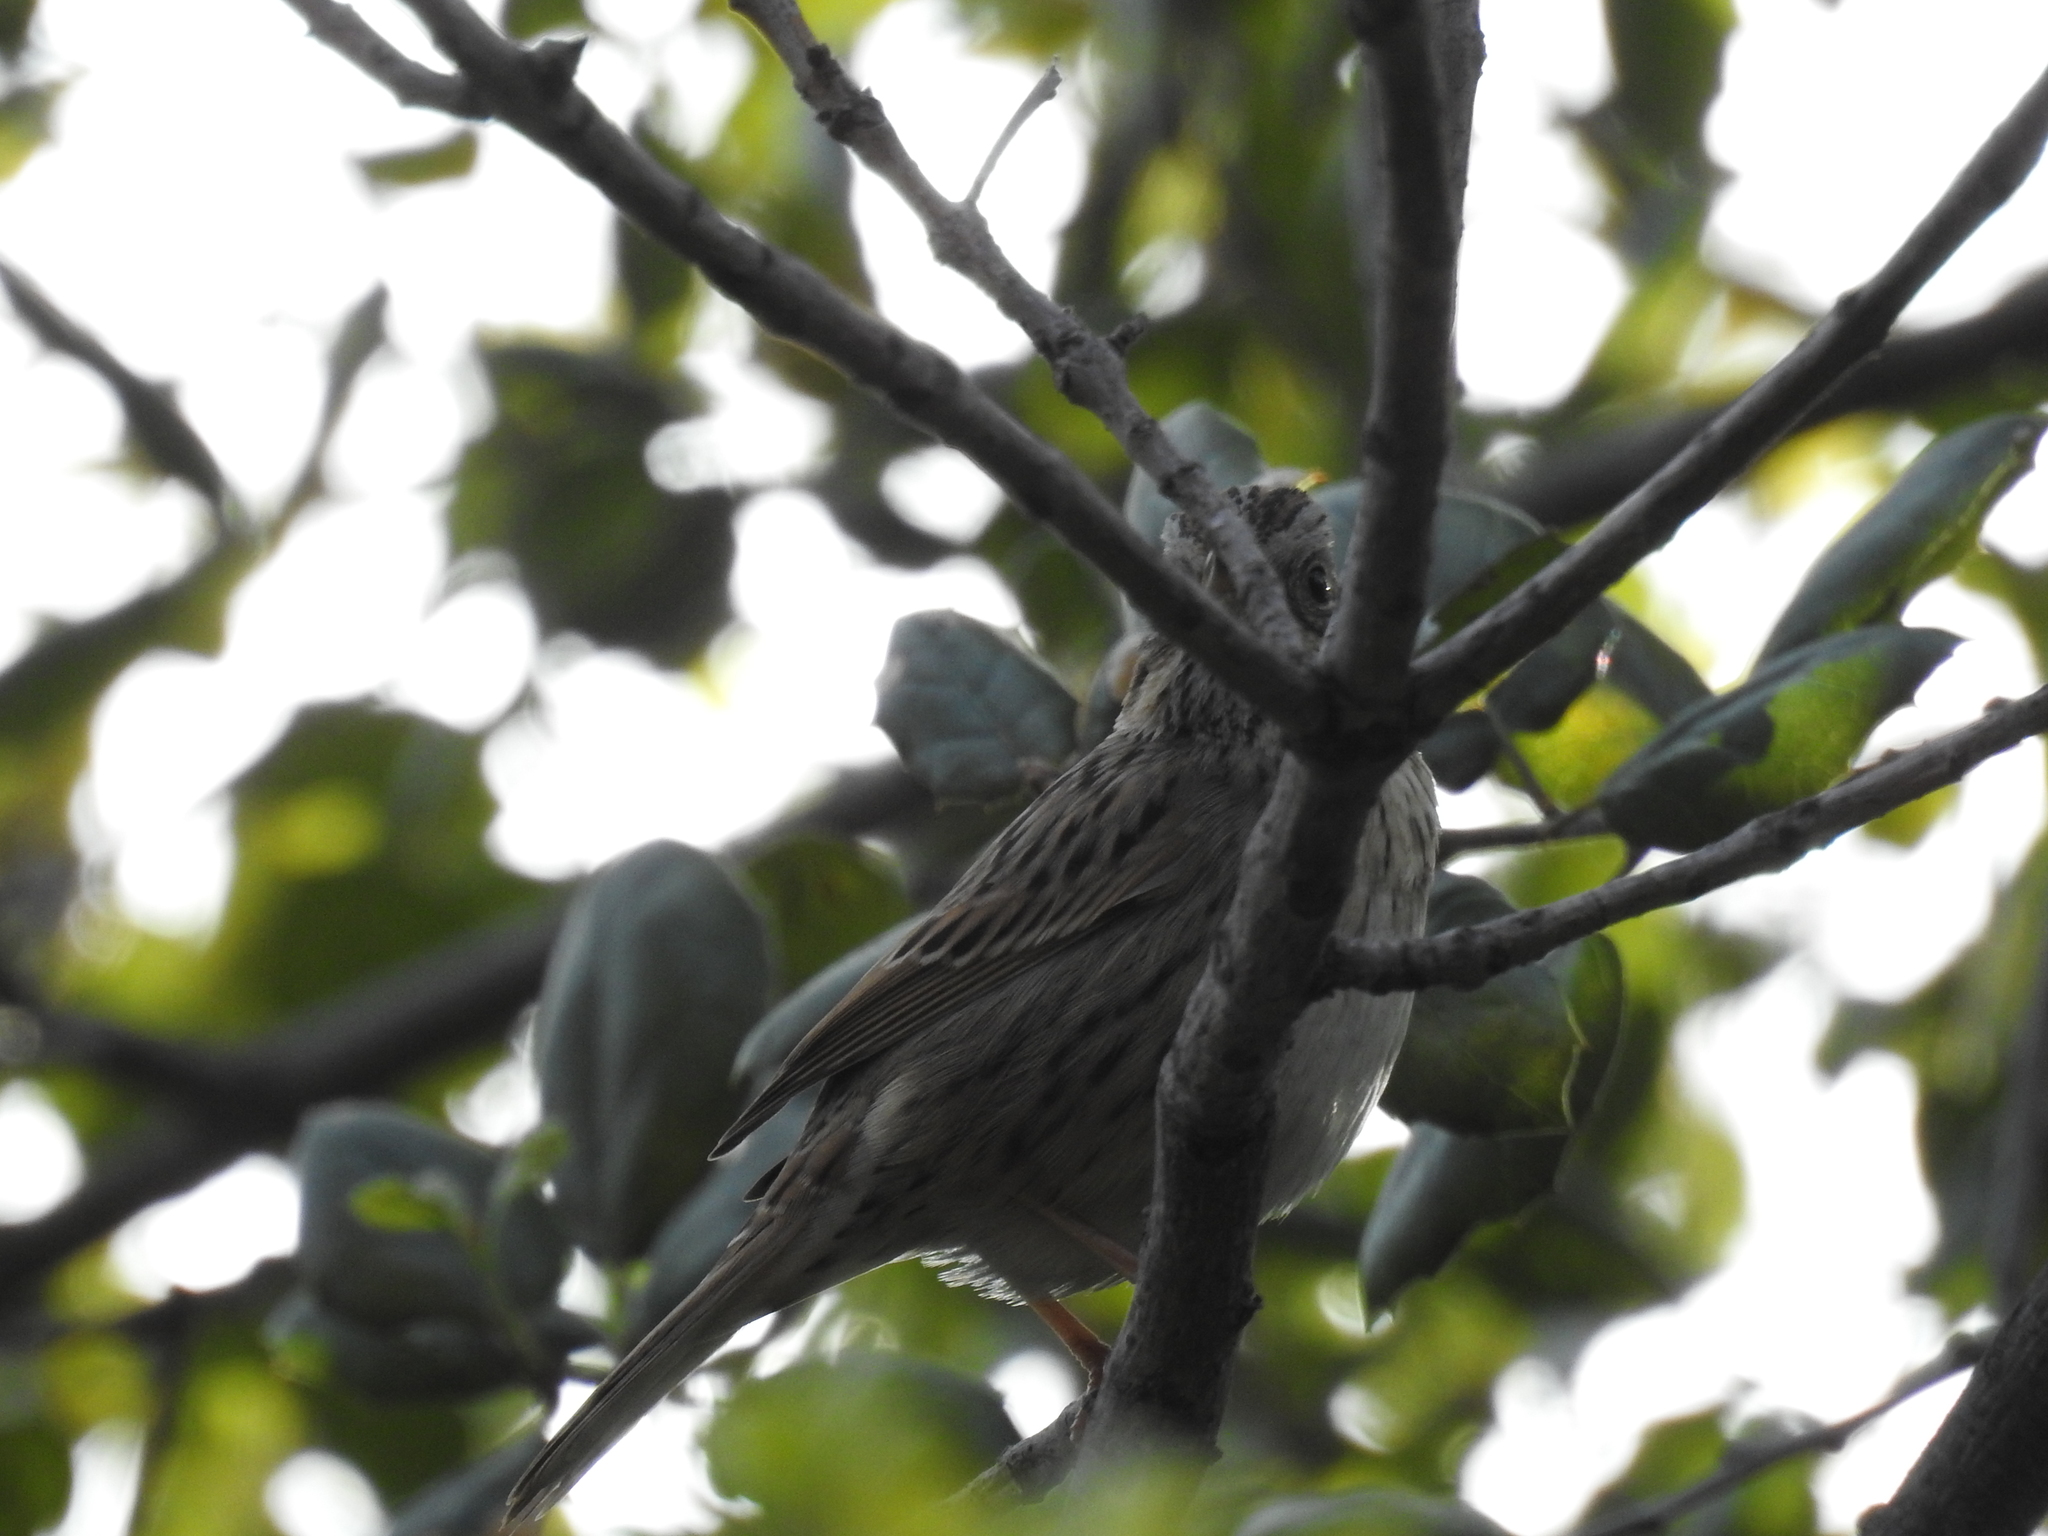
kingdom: Animalia
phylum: Chordata
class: Aves
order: Passeriformes
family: Passerellidae
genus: Melospiza
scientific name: Melospiza lincolnii
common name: Lincoln's sparrow
